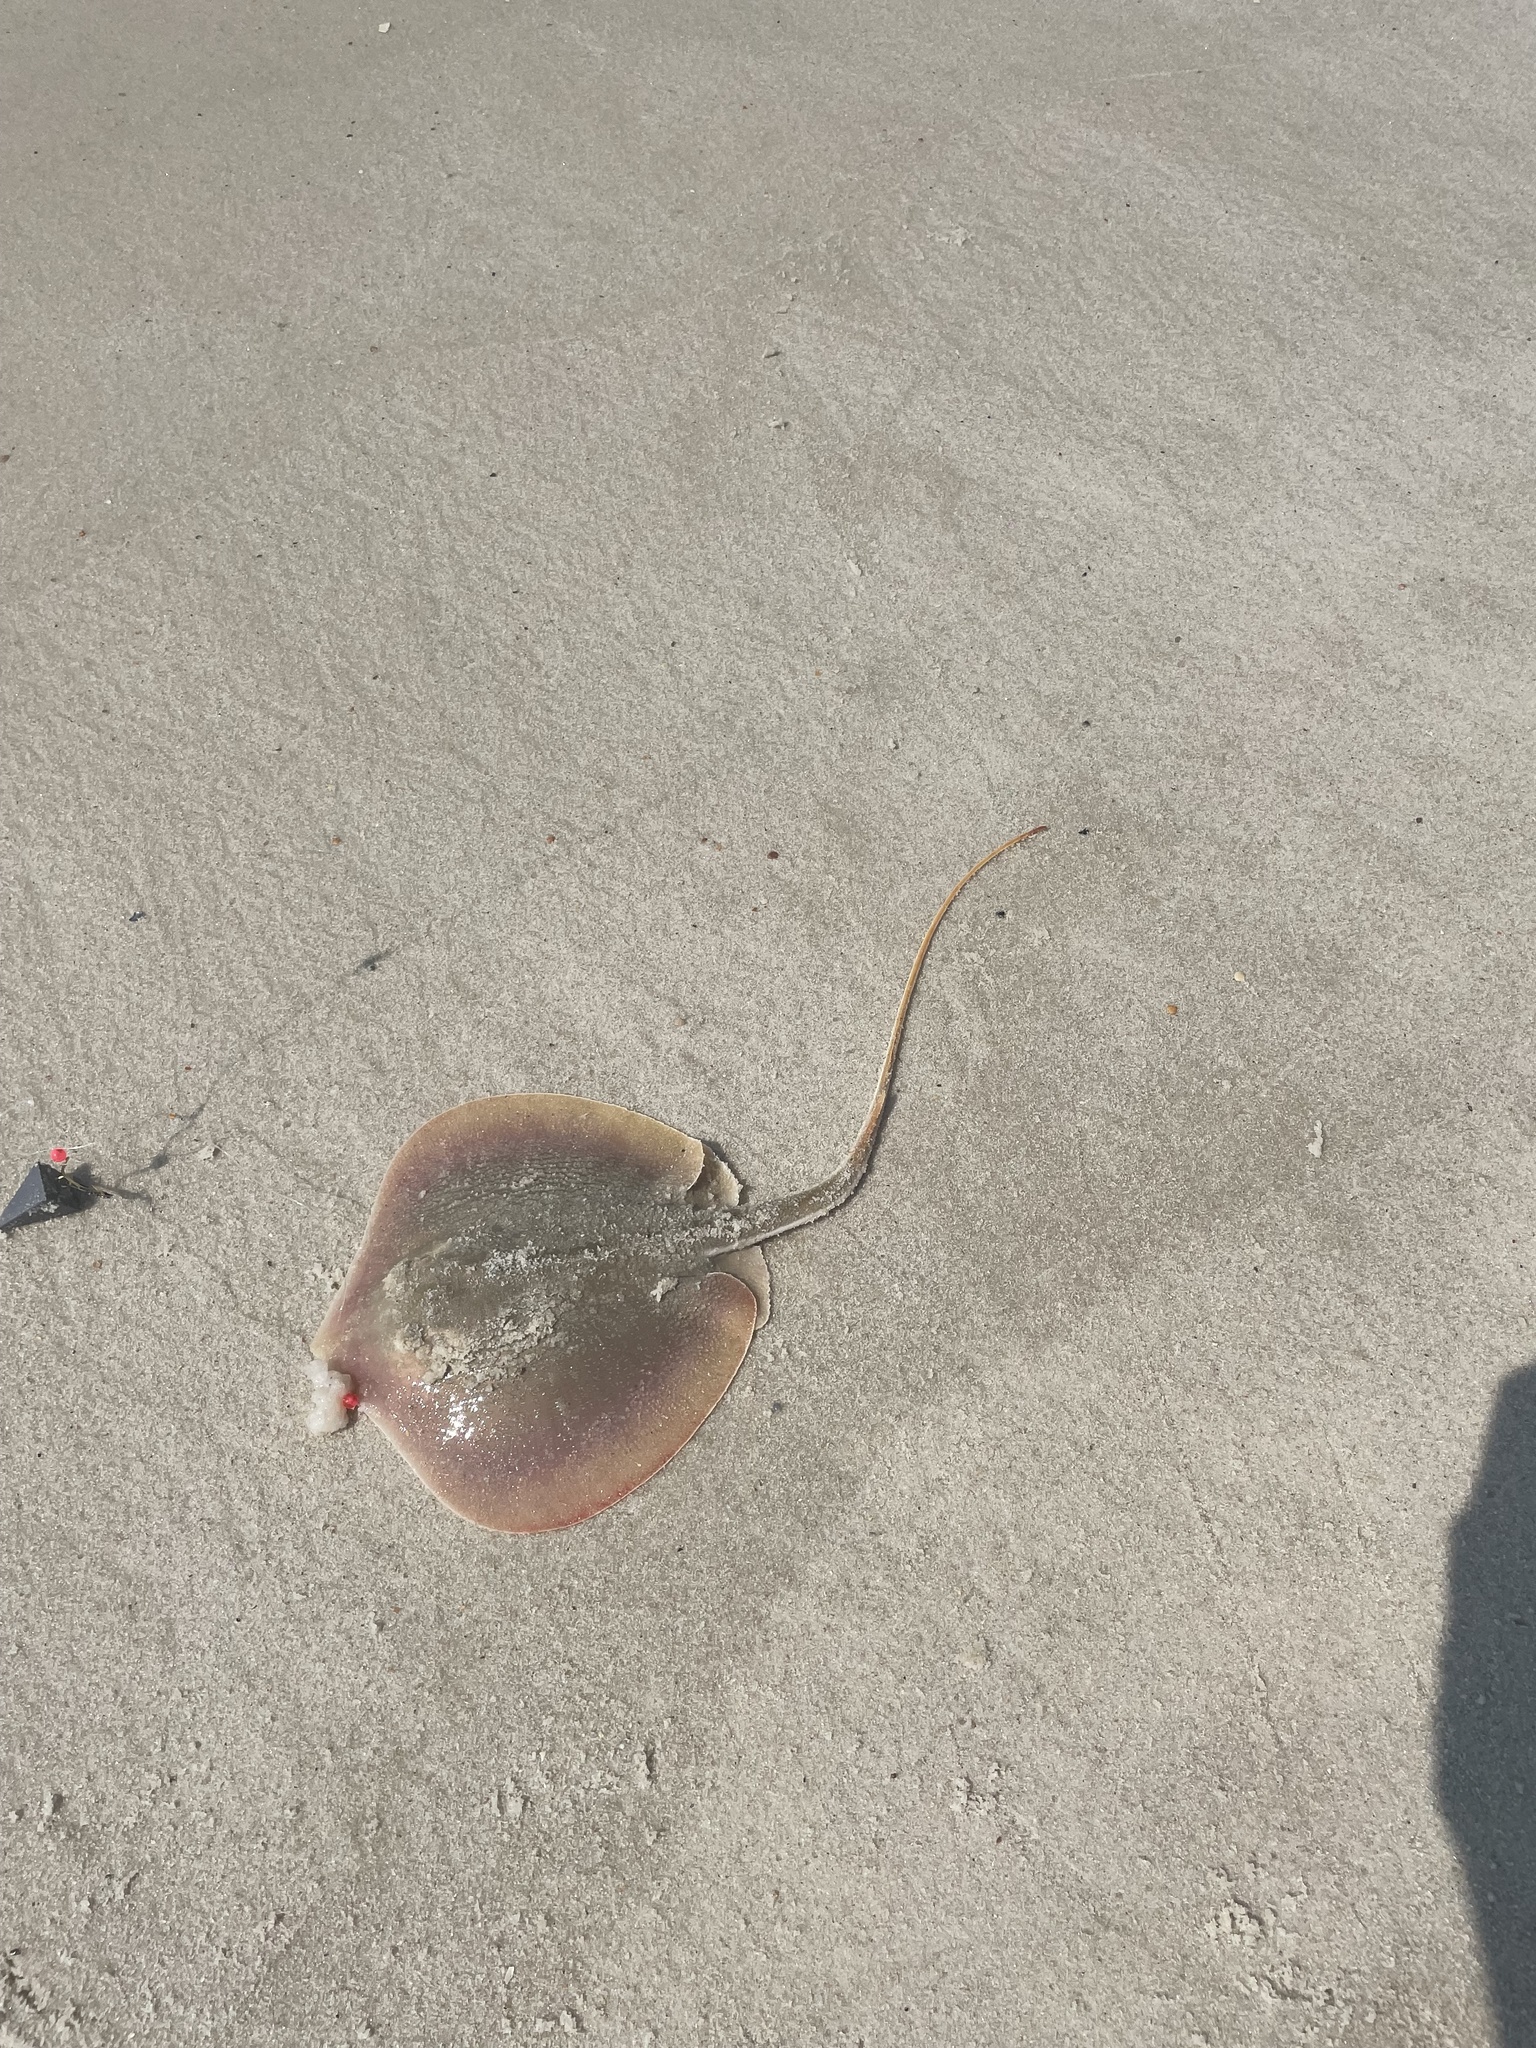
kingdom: Animalia
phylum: Chordata
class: Elasmobranchii
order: Myliobatiformes
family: Dasyatidae
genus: Hypanus
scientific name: Hypanus sabinus
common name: Atlantic stingray
